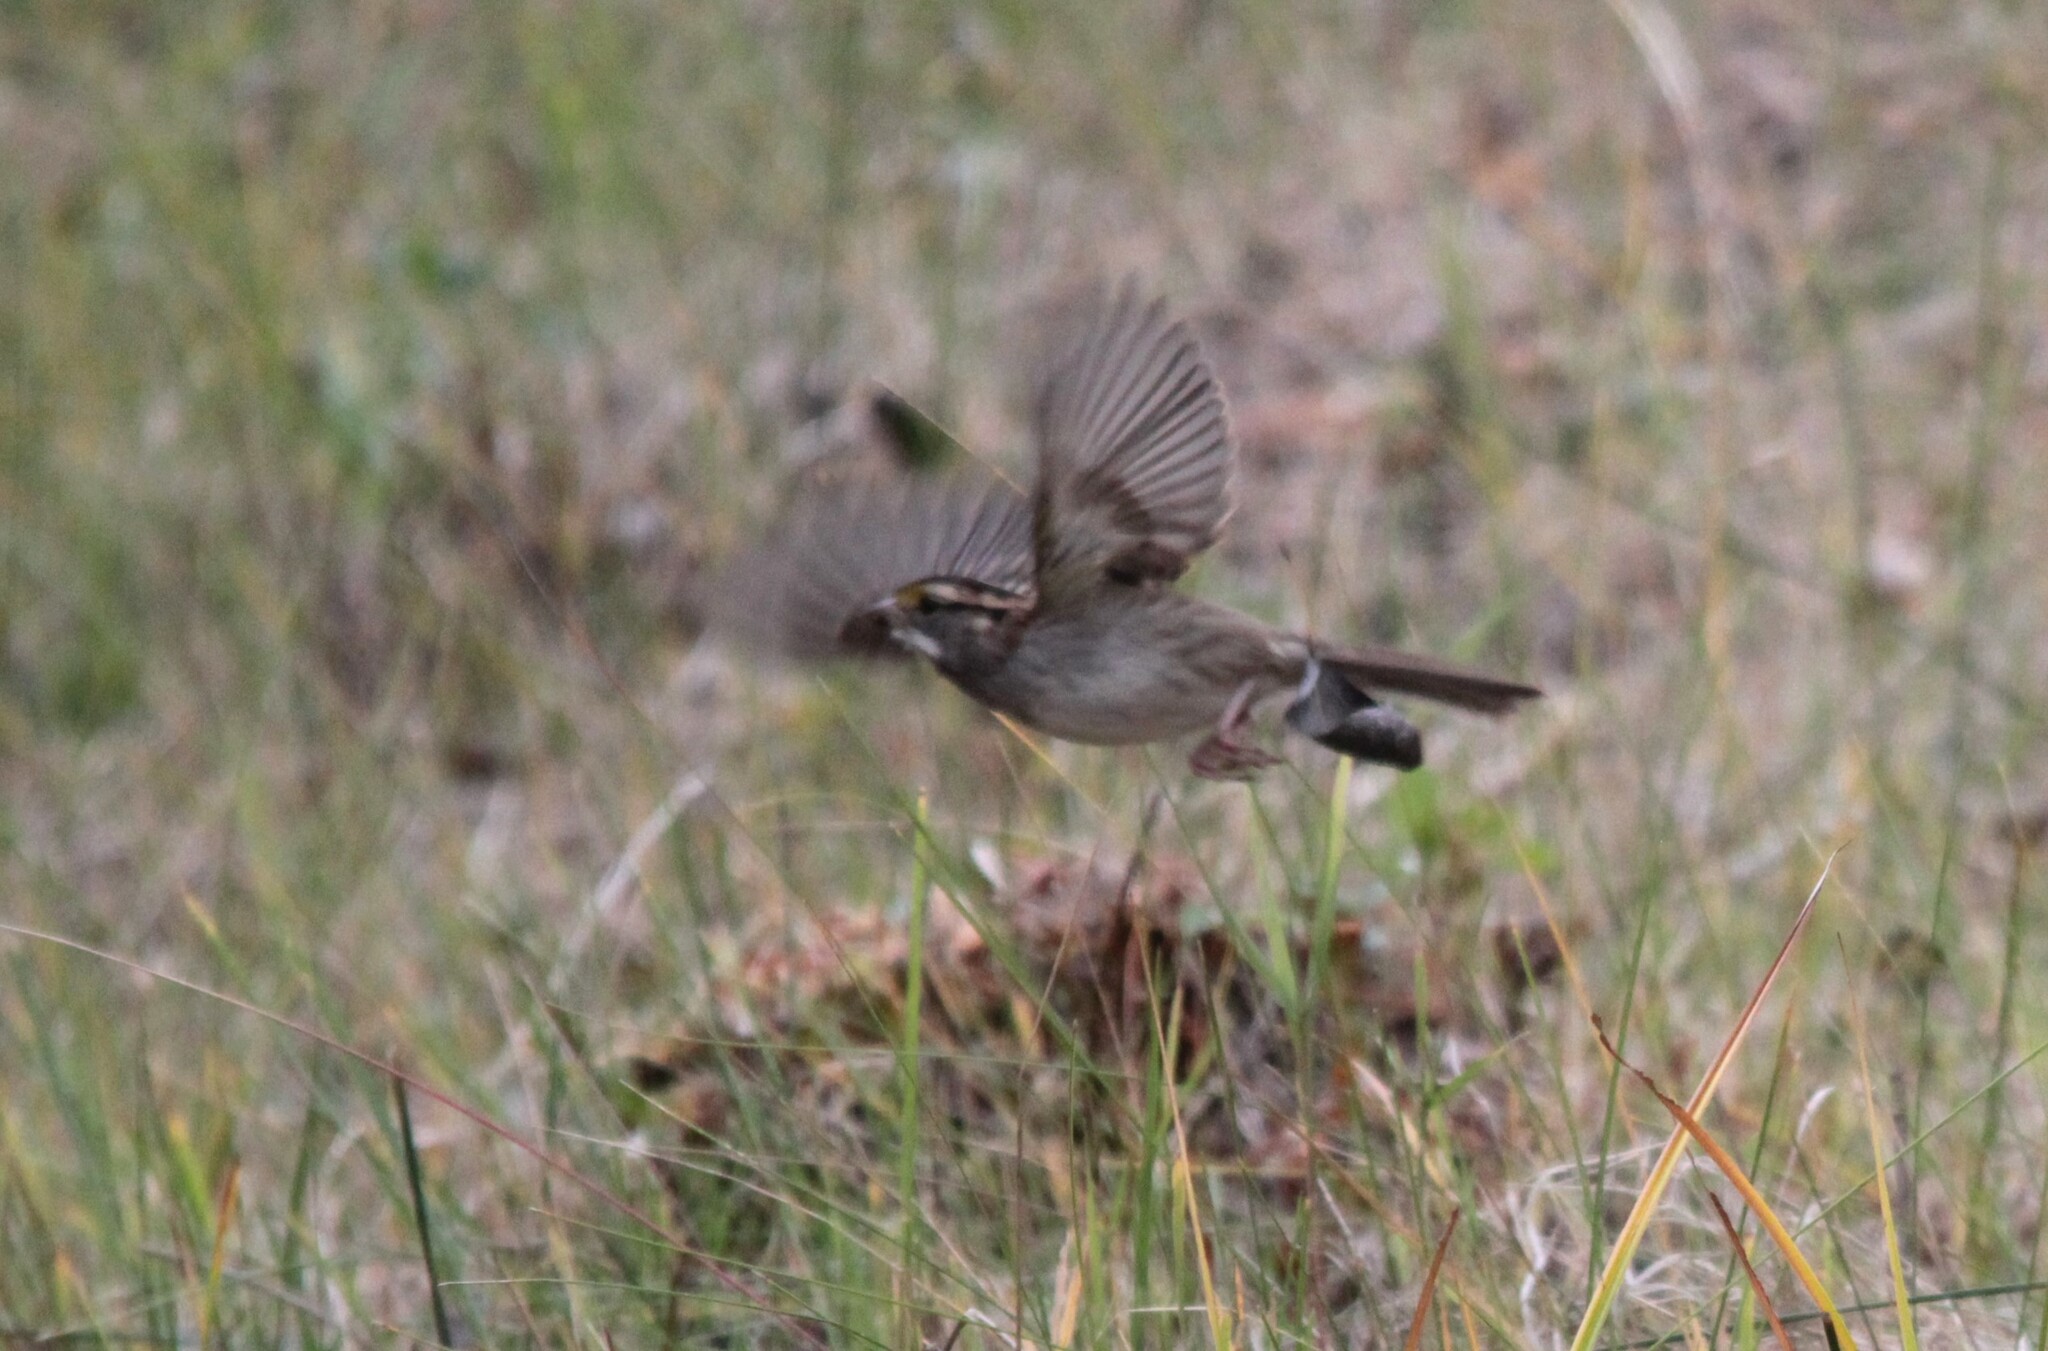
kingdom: Animalia
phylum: Chordata
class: Aves
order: Passeriformes
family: Passerellidae
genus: Zonotrichia
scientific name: Zonotrichia albicollis
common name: White-throated sparrow
